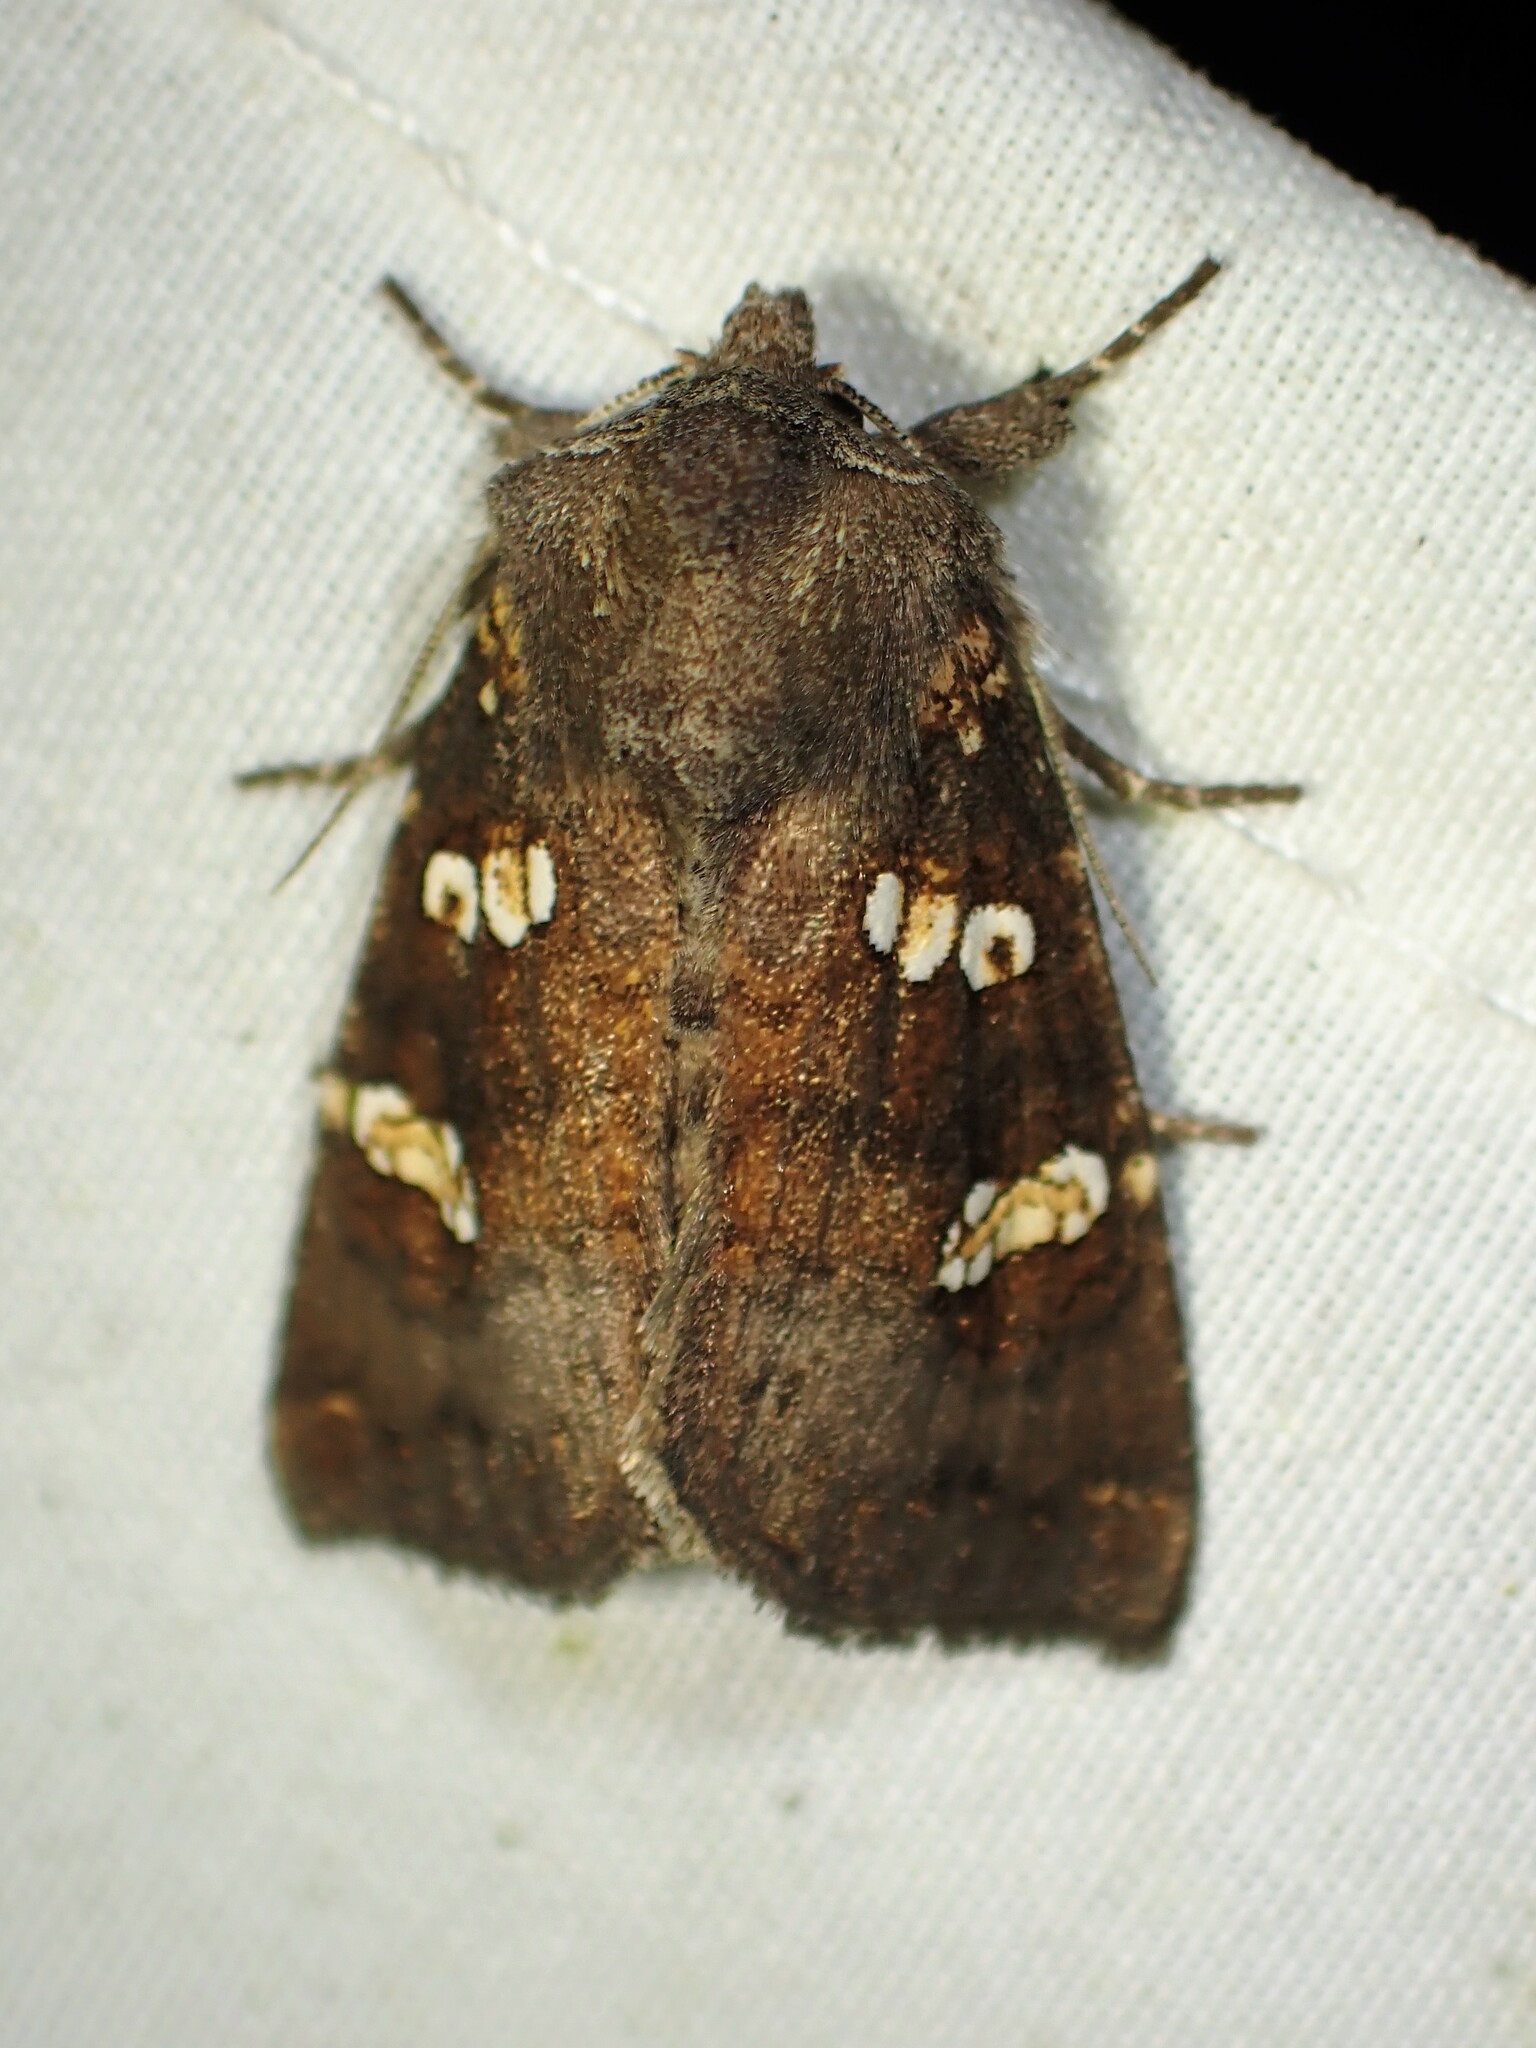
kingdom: Animalia
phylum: Arthropoda
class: Insecta
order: Lepidoptera
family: Noctuidae
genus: Papaipema
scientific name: Papaipema unimoda
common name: Meadow rue borer moth
